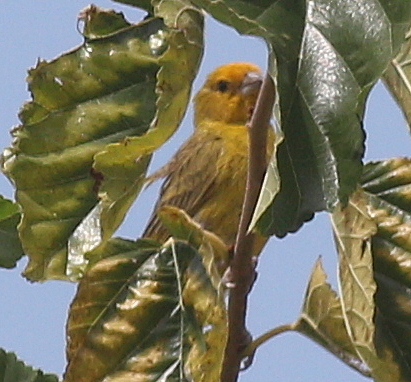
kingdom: Animalia
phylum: Chordata
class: Aves
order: Passeriformes
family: Thraupidae
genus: Sicalis
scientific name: Sicalis flaveola
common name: Saffron finch
